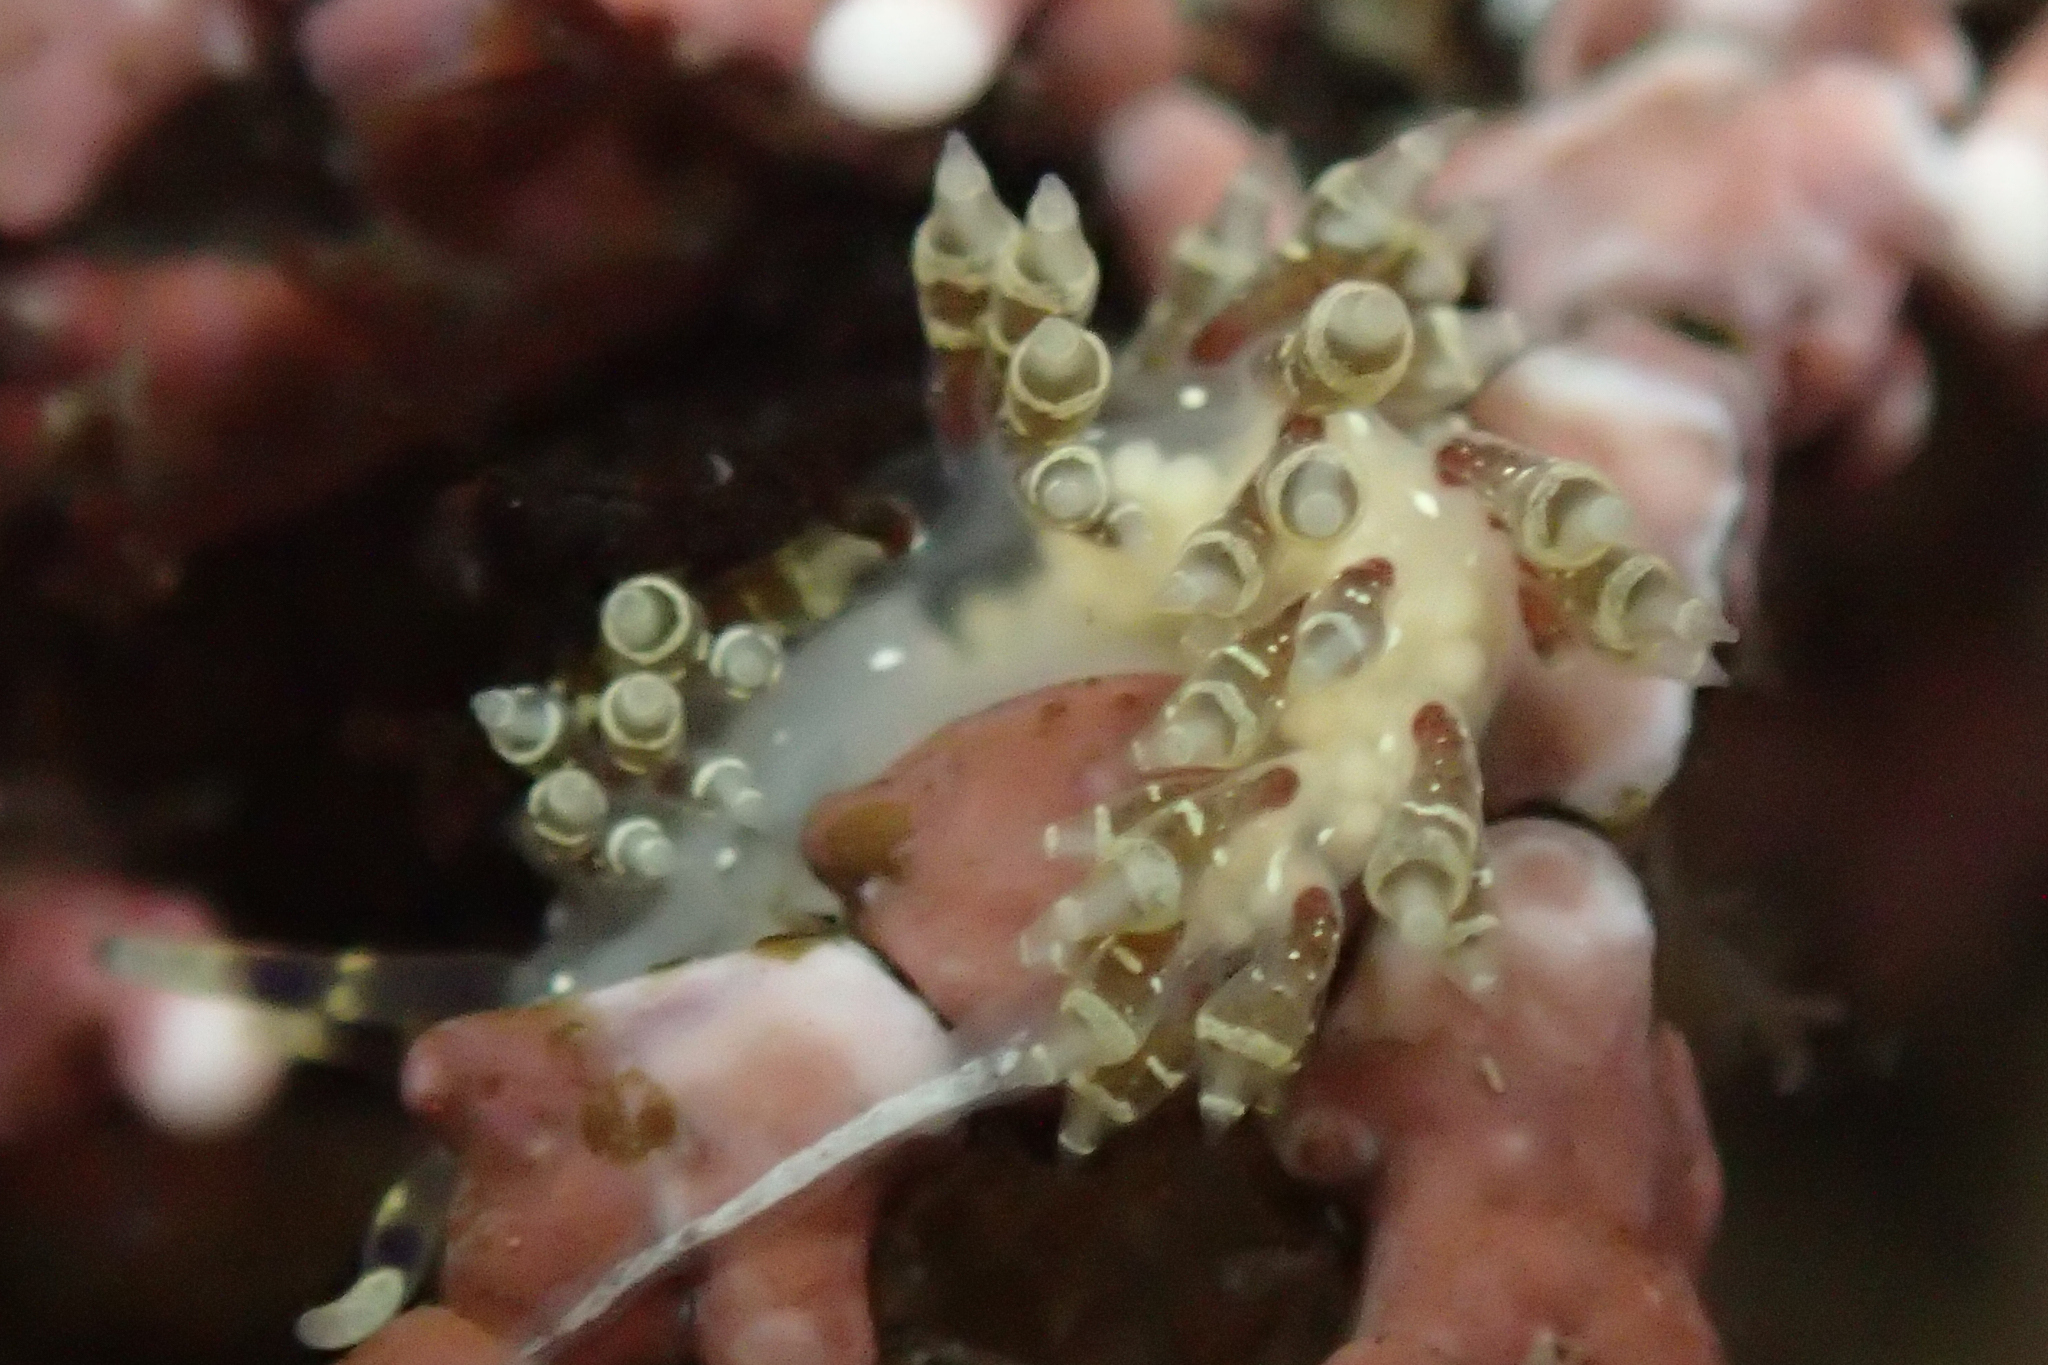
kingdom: Animalia
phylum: Mollusca
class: Gastropoda
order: Nudibranchia
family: Abronicidae
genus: Abronica
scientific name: Abronica abronia
